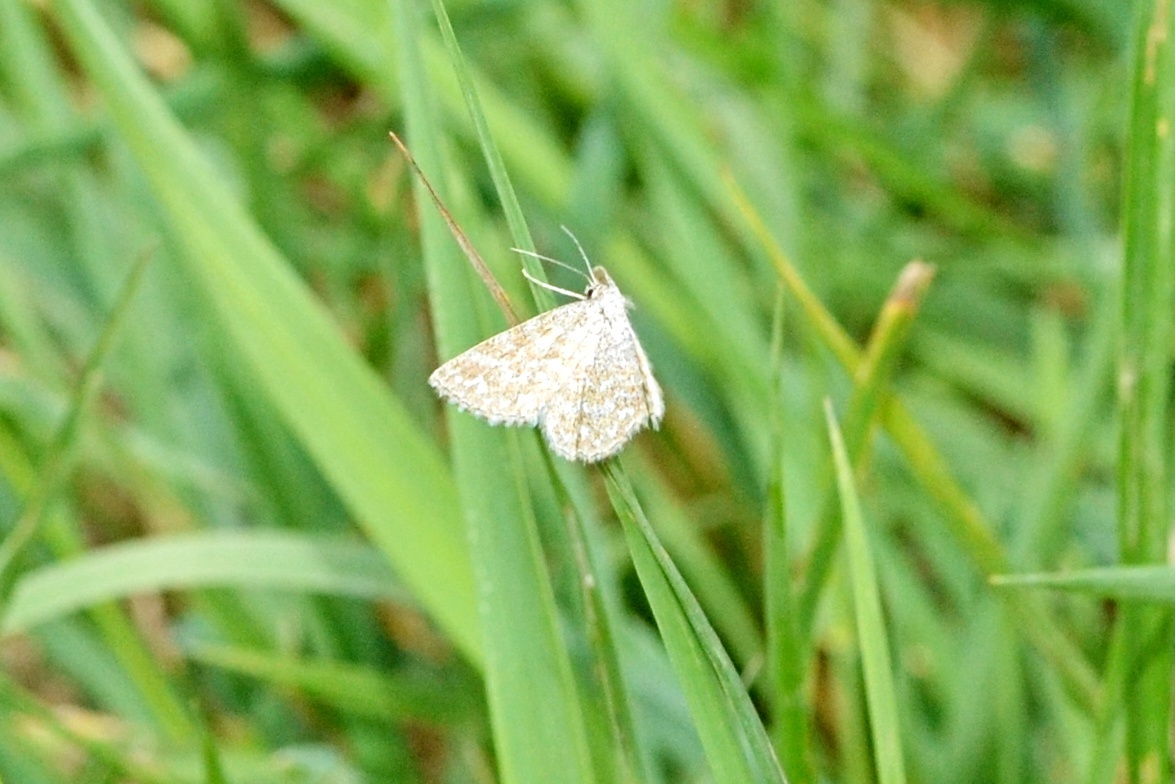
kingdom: Animalia
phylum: Arthropoda
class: Insecta
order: Lepidoptera
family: Geometridae
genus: Scopula
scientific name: Scopula immorata
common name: Lewes wave
